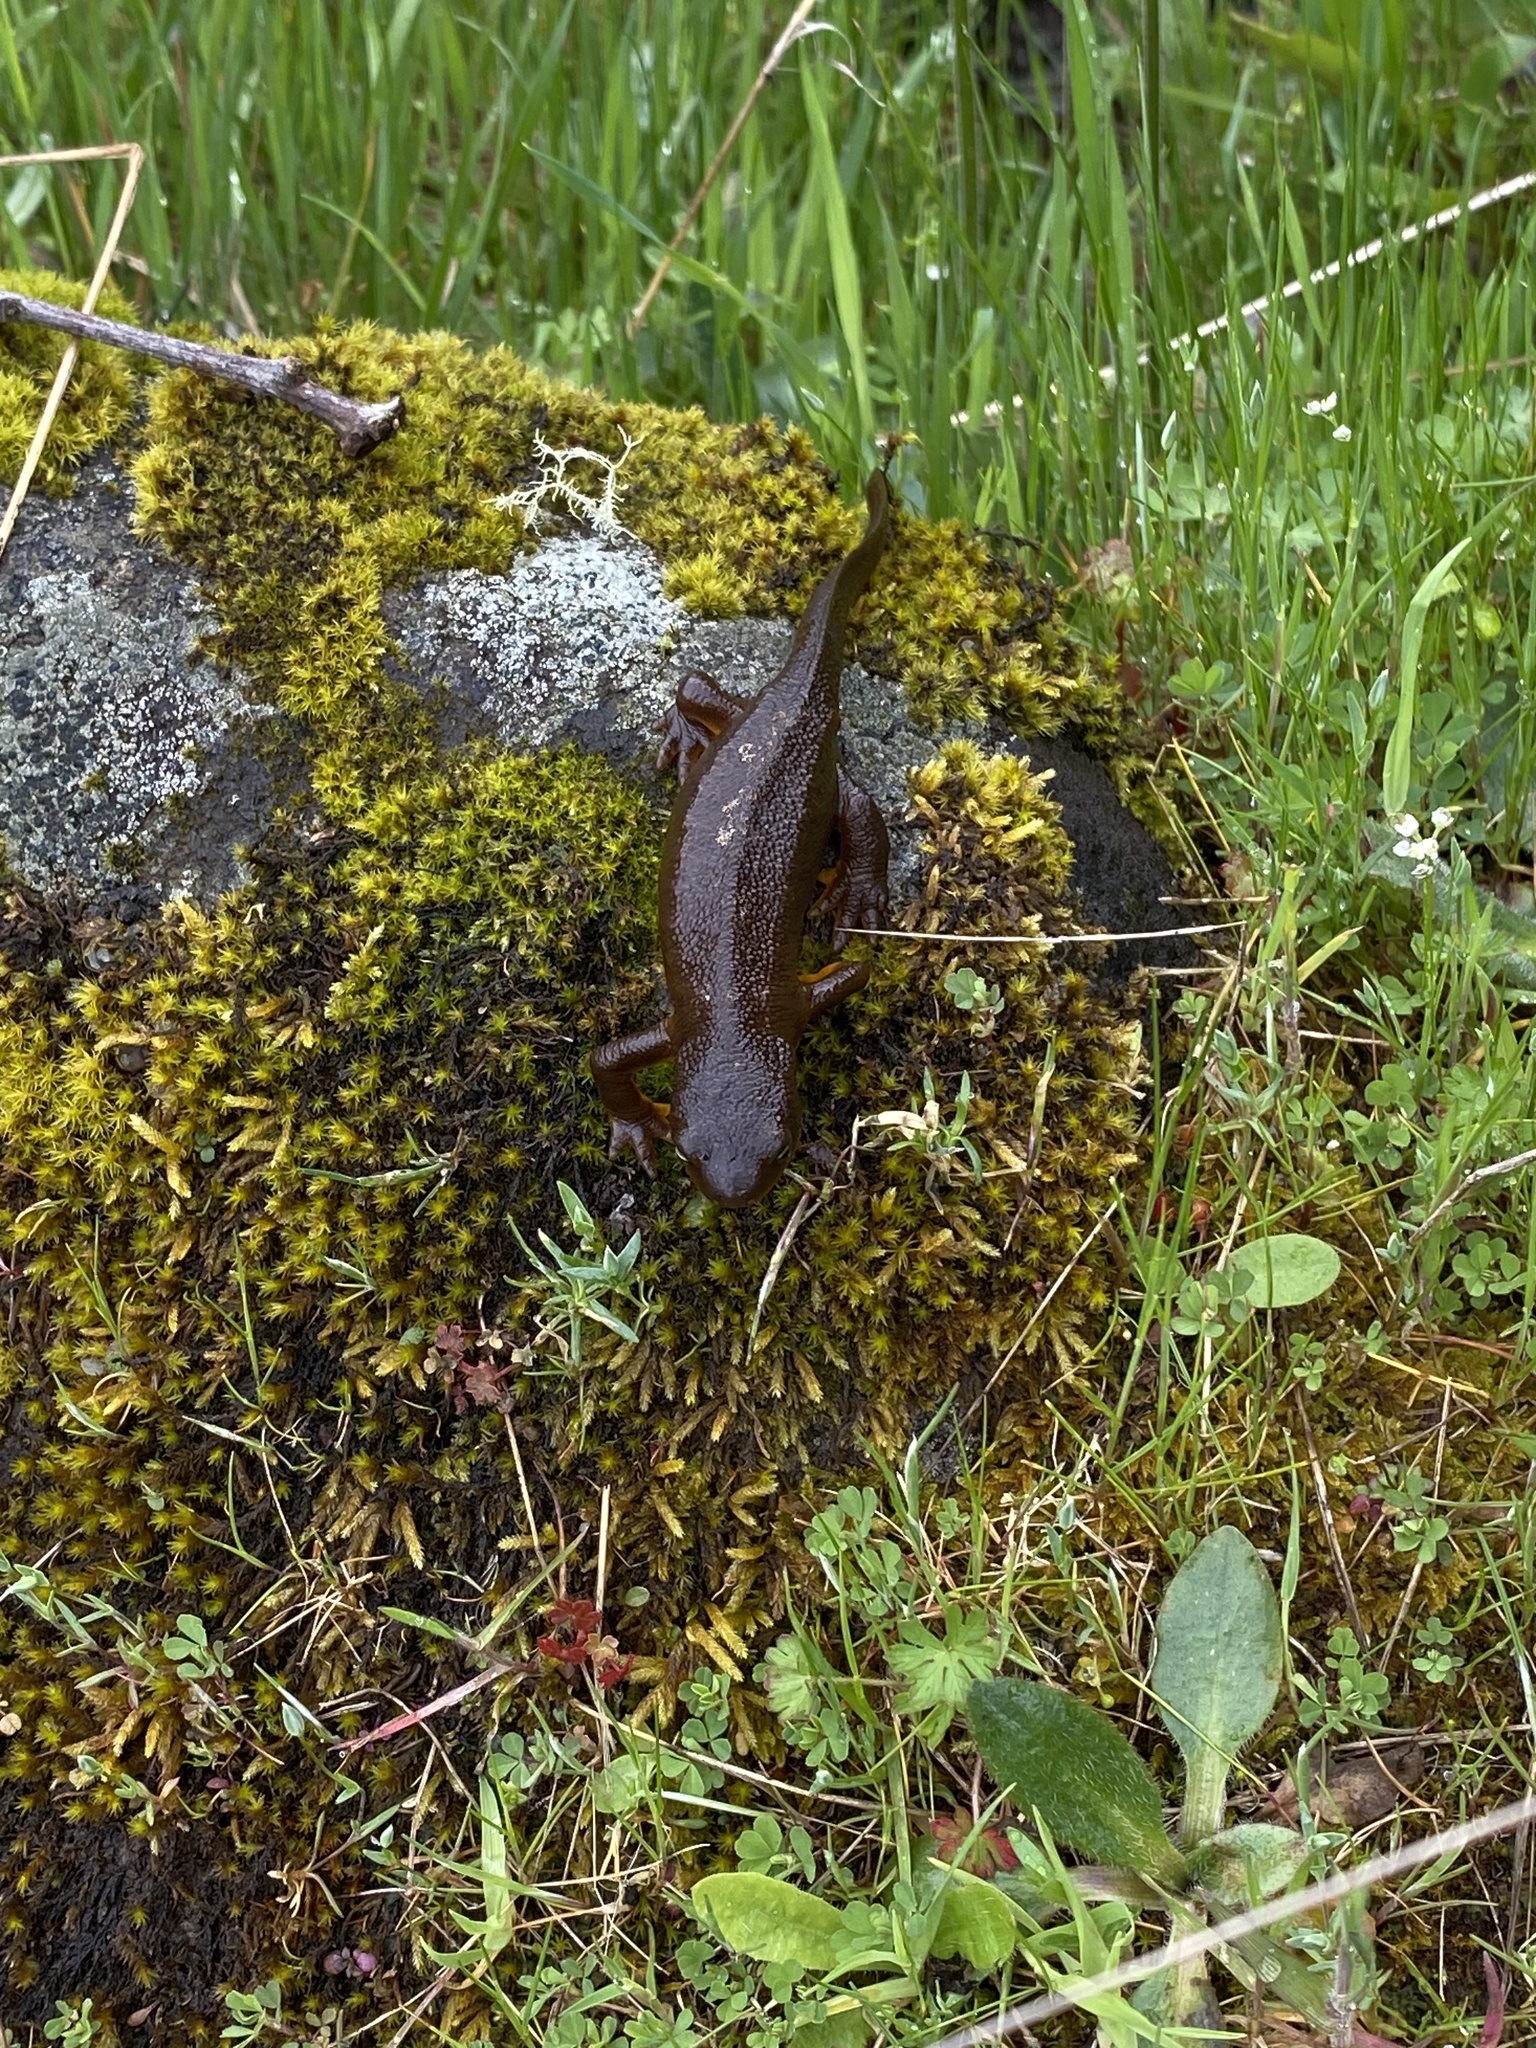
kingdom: Animalia
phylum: Chordata
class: Amphibia
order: Caudata
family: Salamandridae
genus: Taricha
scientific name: Taricha granulosa
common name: Roughskin newt
